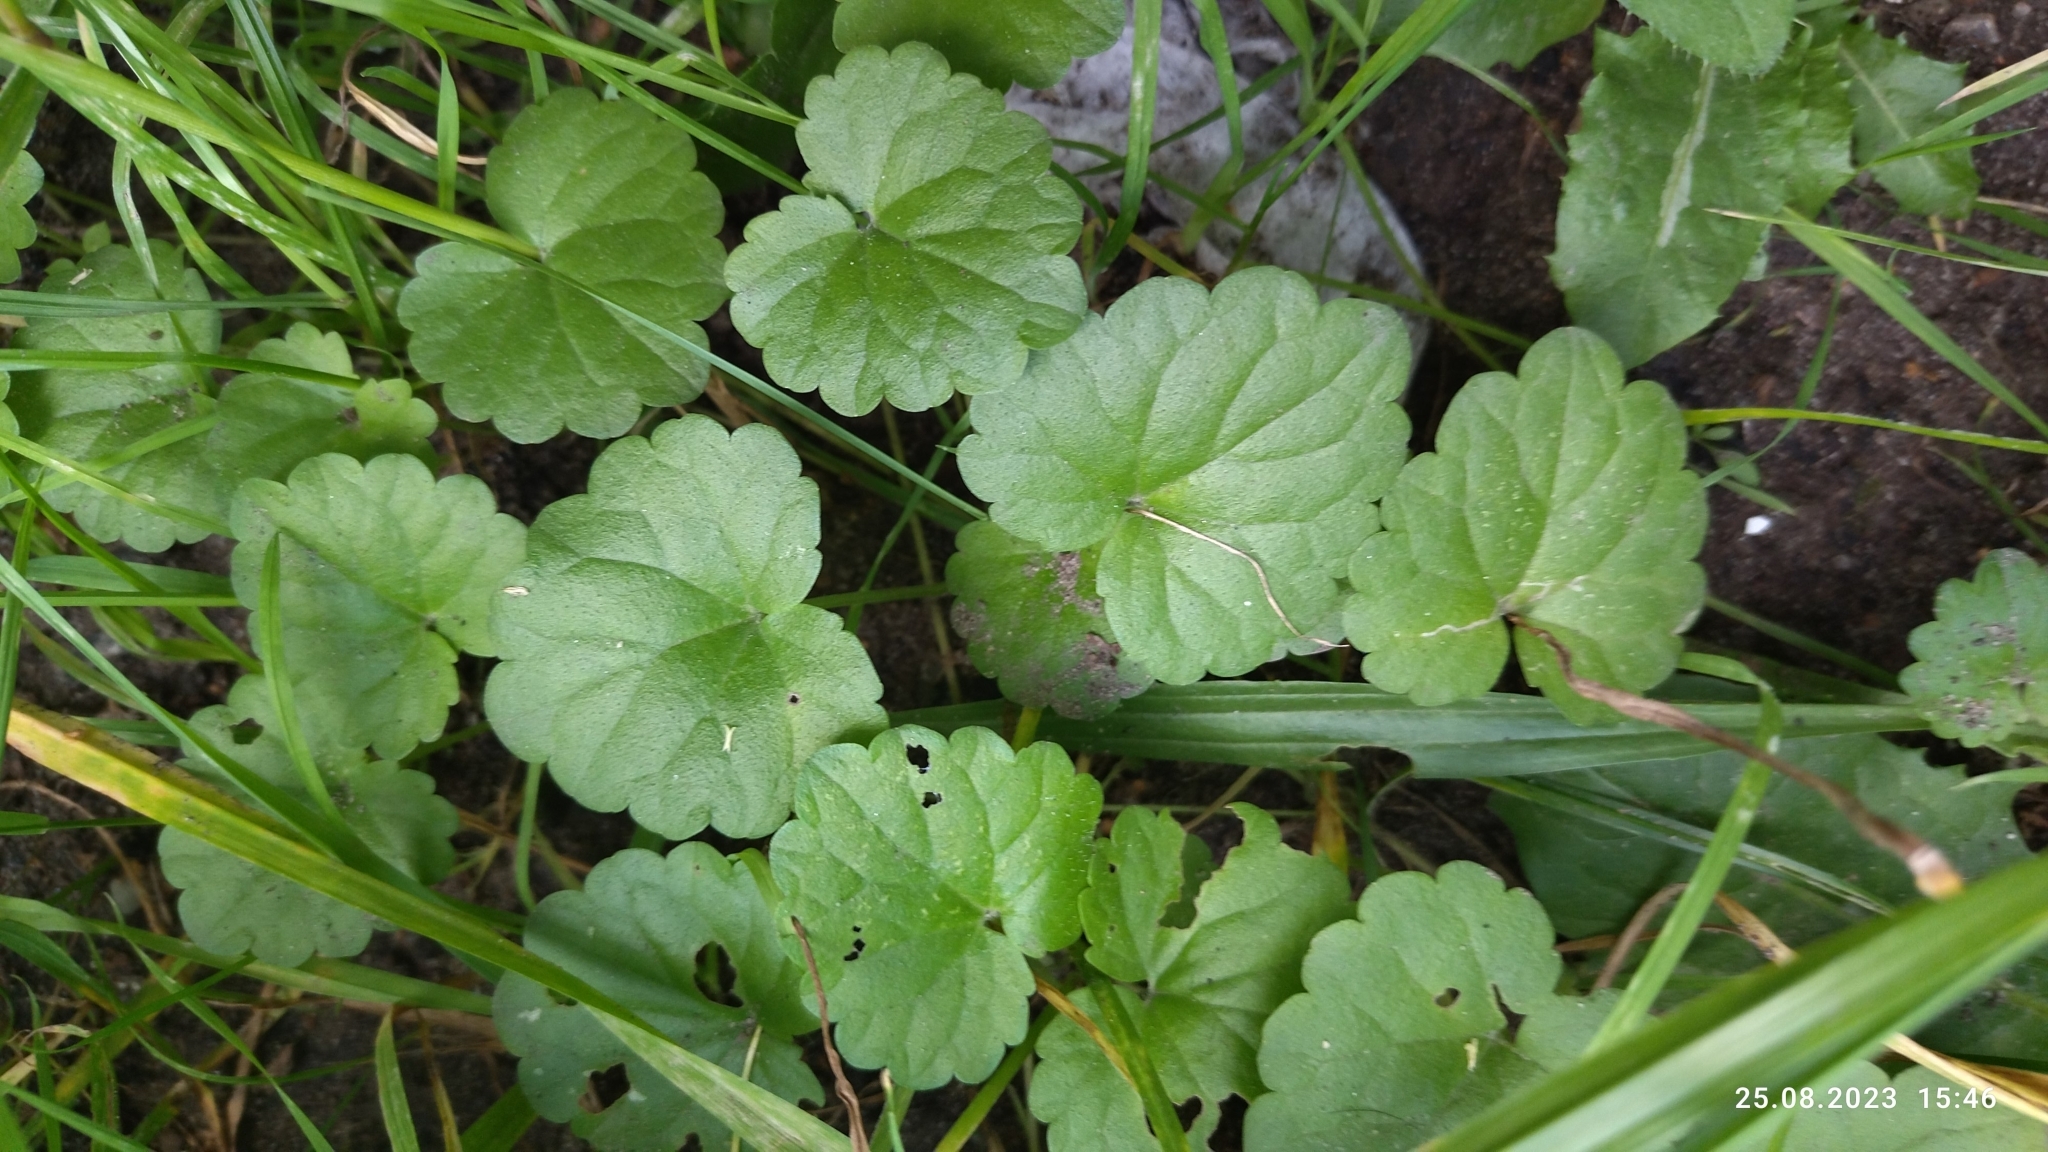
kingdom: Plantae
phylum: Tracheophyta
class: Magnoliopsida
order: Lamiales
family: Lamiaceae
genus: Glechoma
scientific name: Glechoma hederacea
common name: Ground ivy
